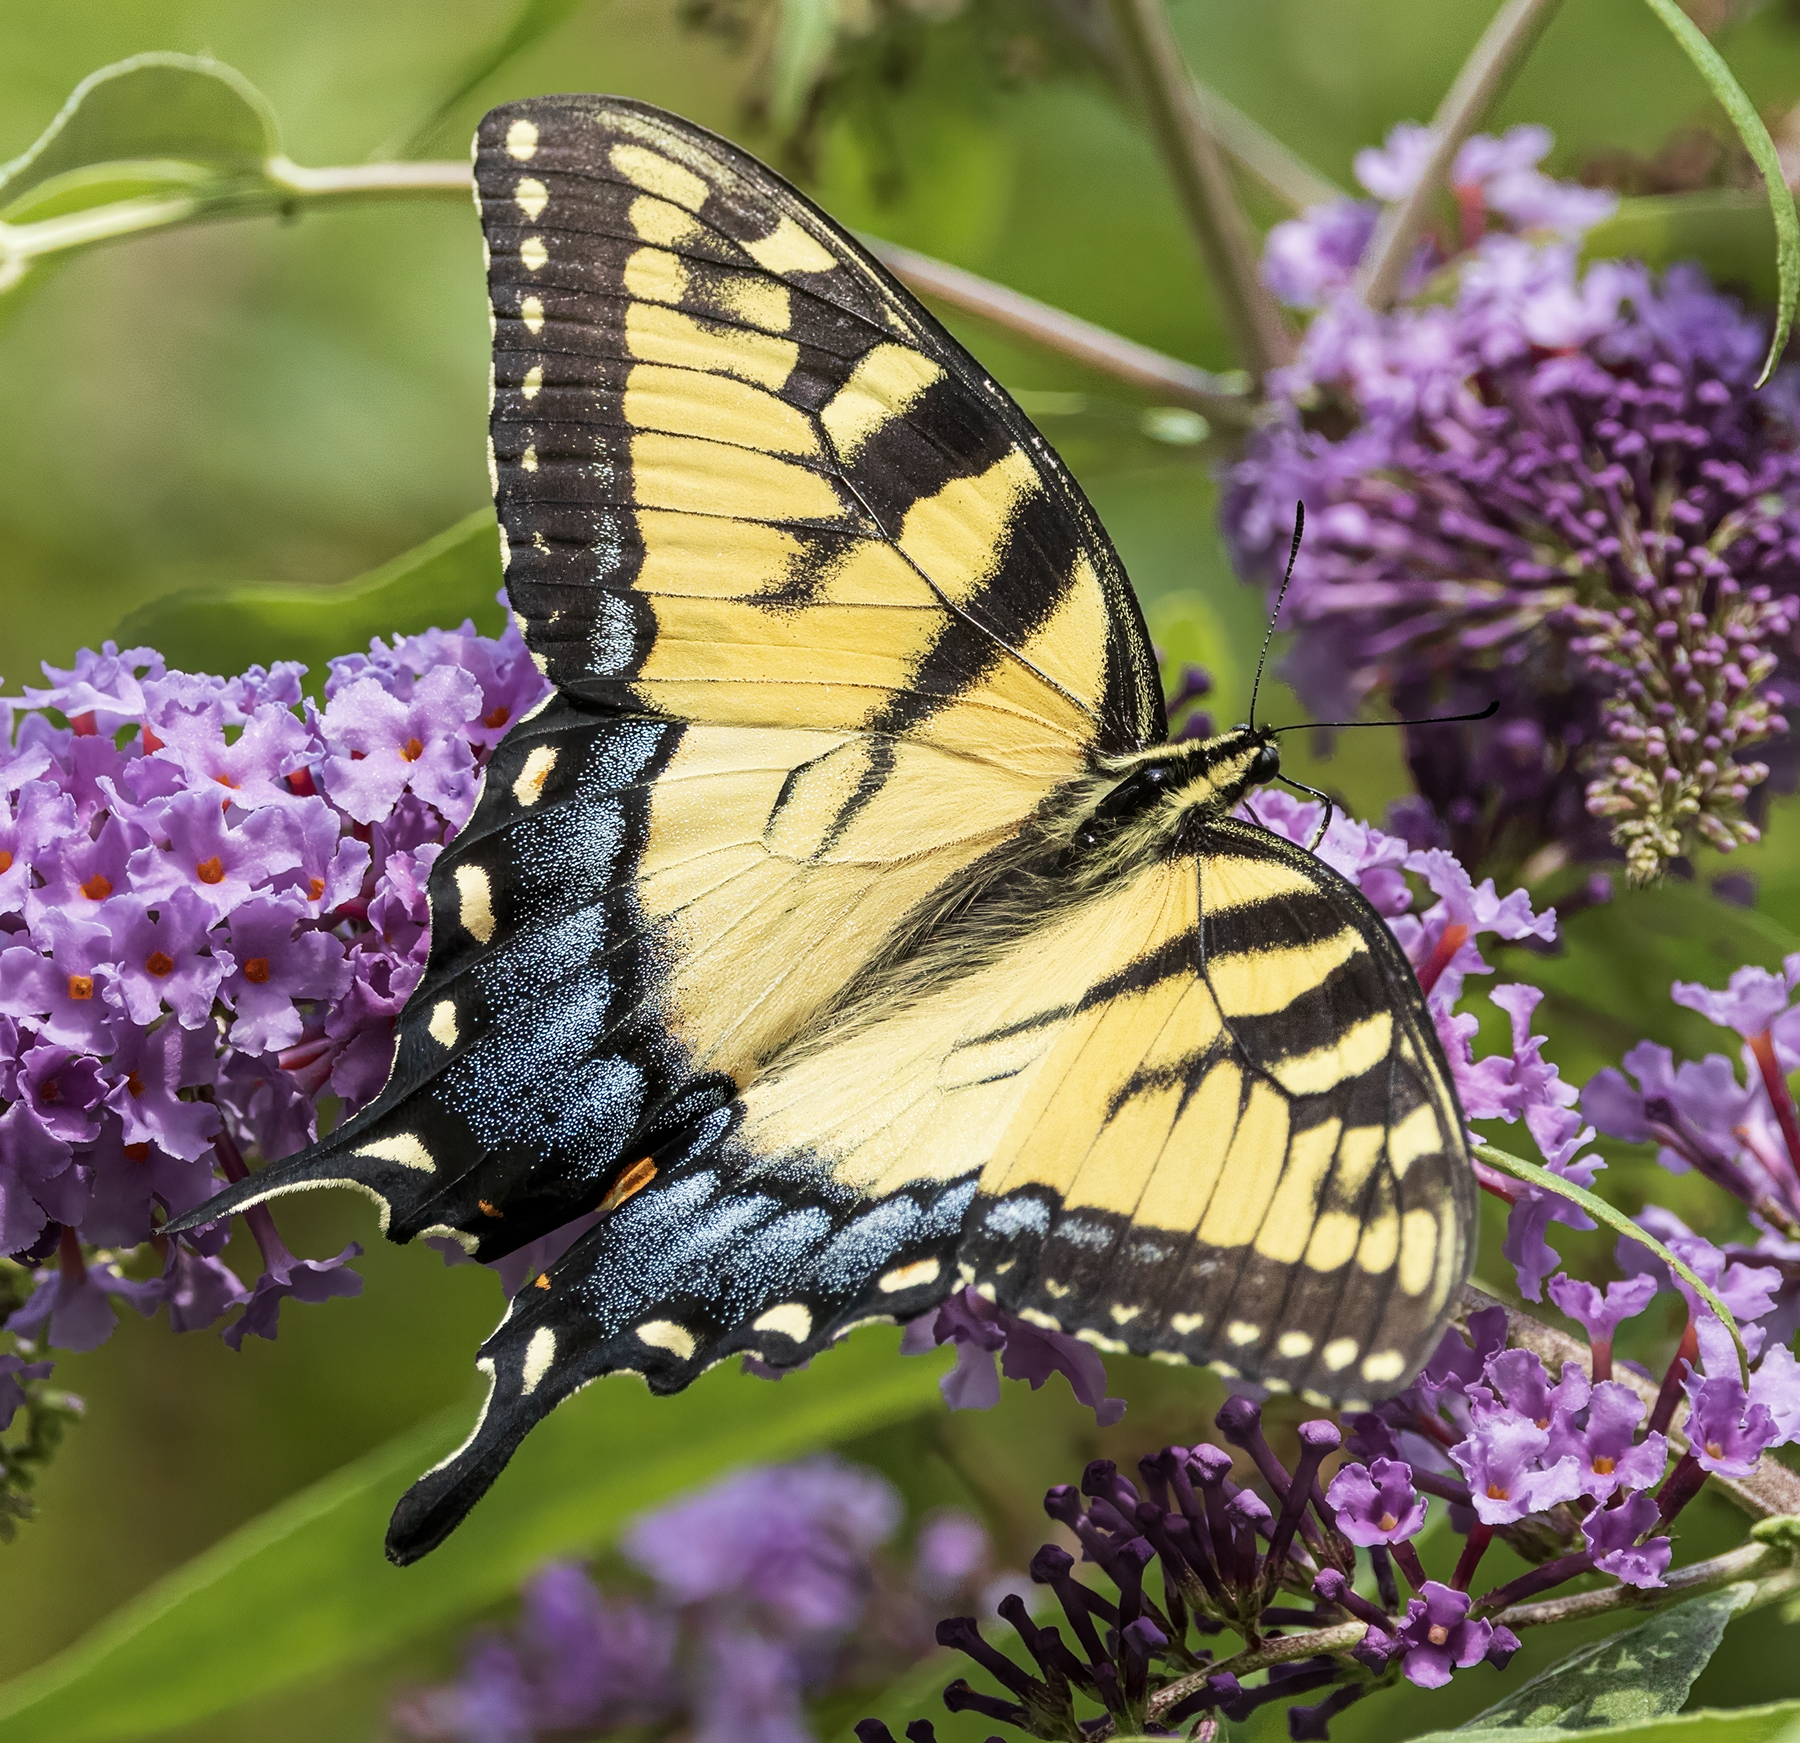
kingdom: Animalia
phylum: Arthropoda
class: Insecta
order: Lepidoptera
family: Papilionidae
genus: Papilio
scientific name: Papilio glaucus
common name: Tiger swallowtail
